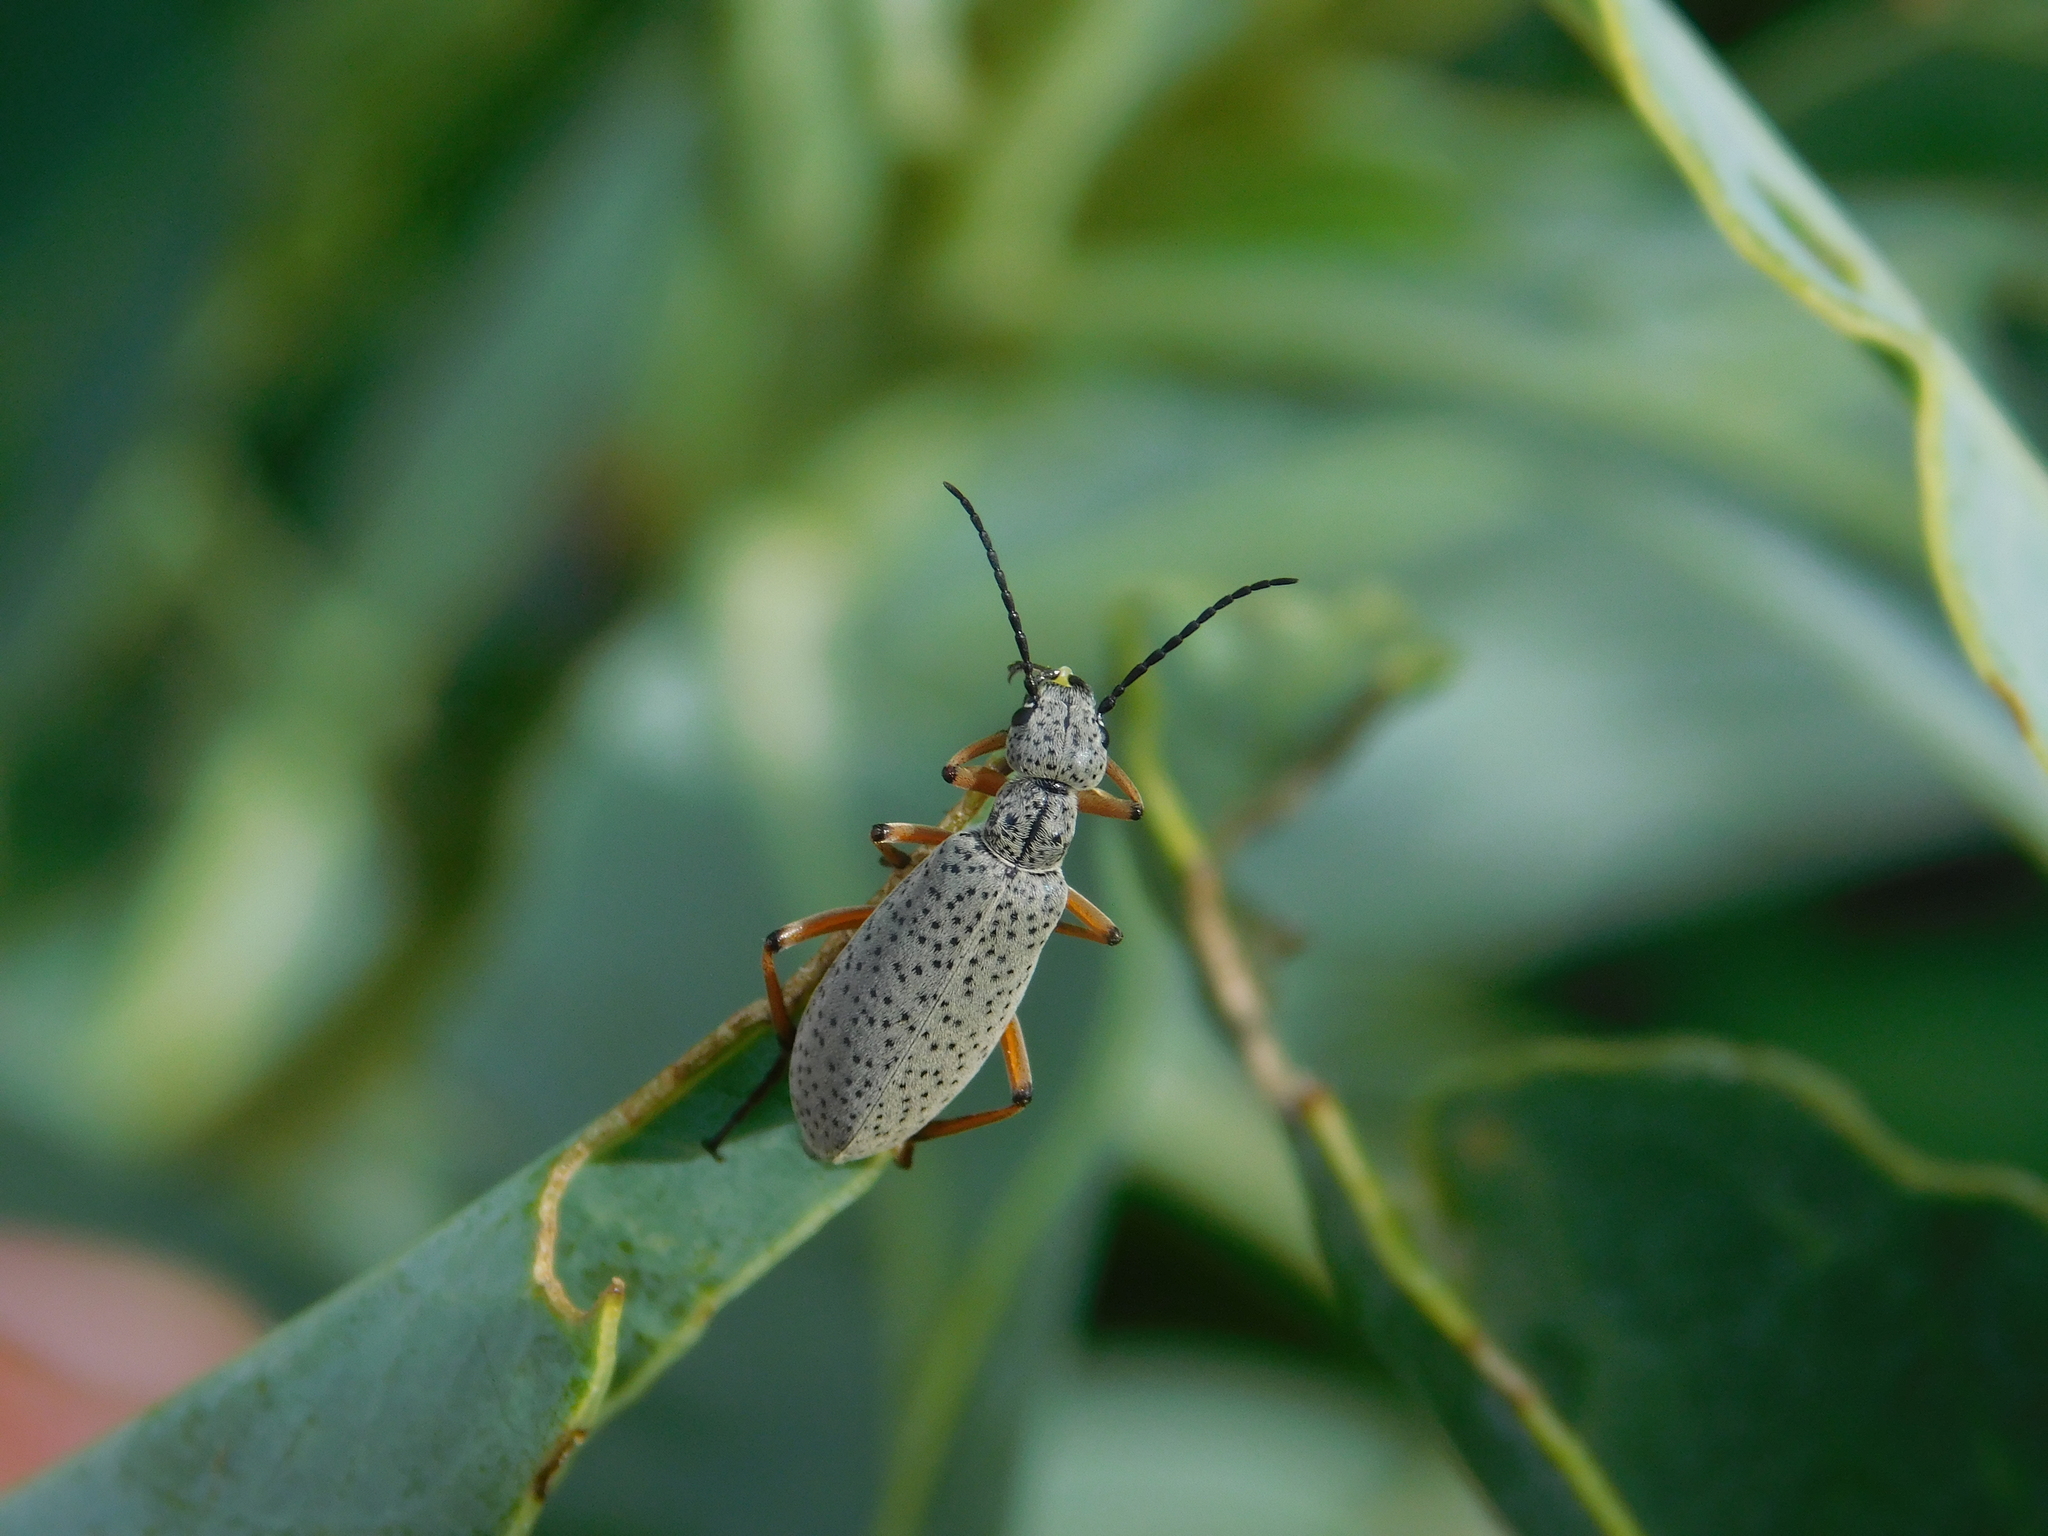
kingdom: Animalia
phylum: Arthropoda
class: Insecta
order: Coleoptera
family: Meloidae
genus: Epicauta
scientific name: Epicauta
